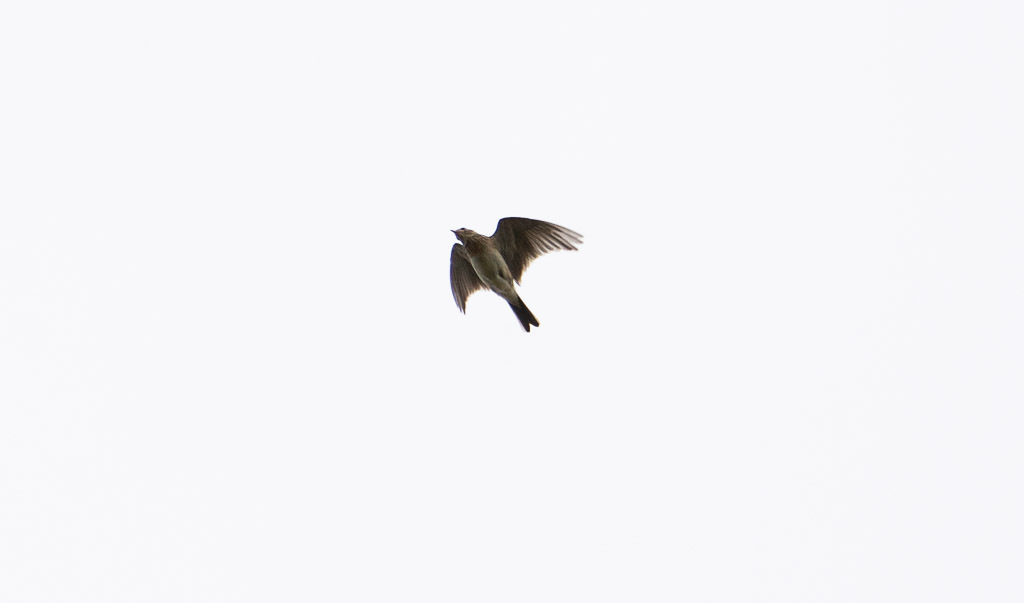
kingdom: Animalia
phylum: Chordata
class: Aves
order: Passeriformes
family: Alaudidae
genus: Alauda
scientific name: Alauda arvensis
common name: Eurasian skylark
